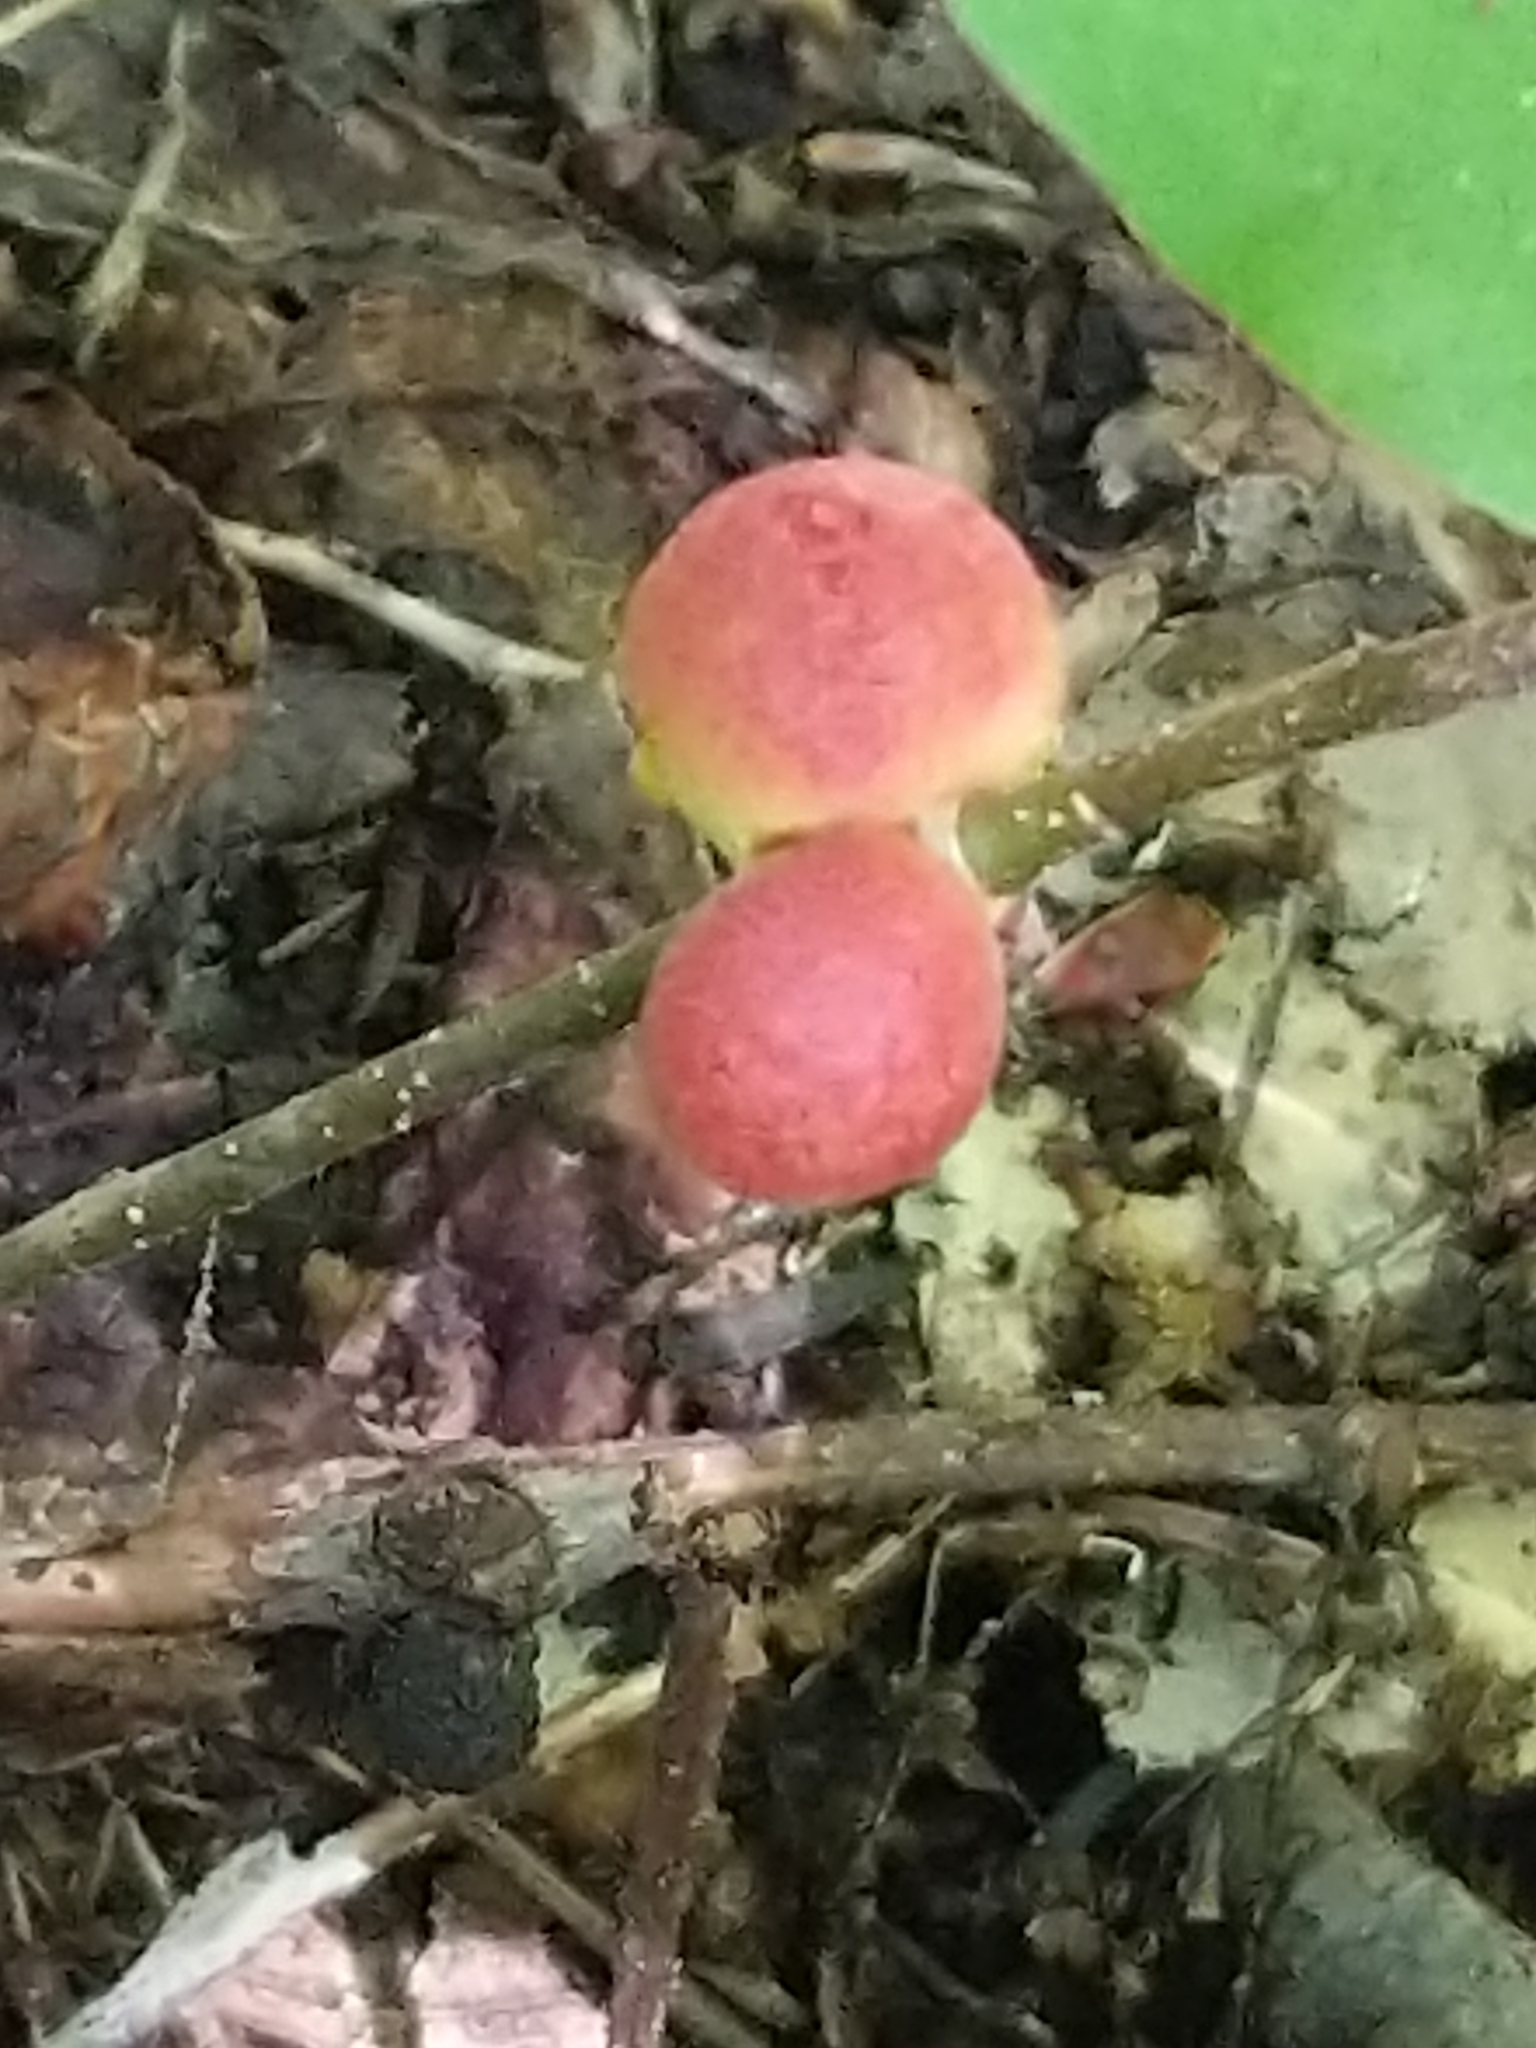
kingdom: Animalia
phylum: Arthropoda
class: Insecta
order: Hymenoptera
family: Cynipidae
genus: Disholcaspis
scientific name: Disholcaspis quercusglobulus
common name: Round bullet gall wasp
